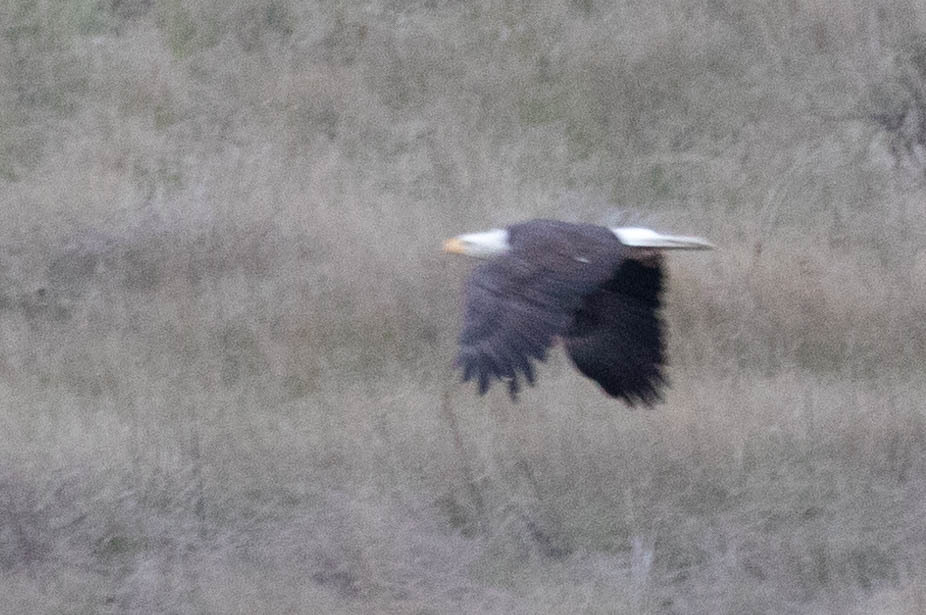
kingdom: Animalia
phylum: Chordata
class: Aves
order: Accipitriformes
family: Accipitridae
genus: Haliaeetus
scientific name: Haliaeetus leucocephalus
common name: Bald eagle
